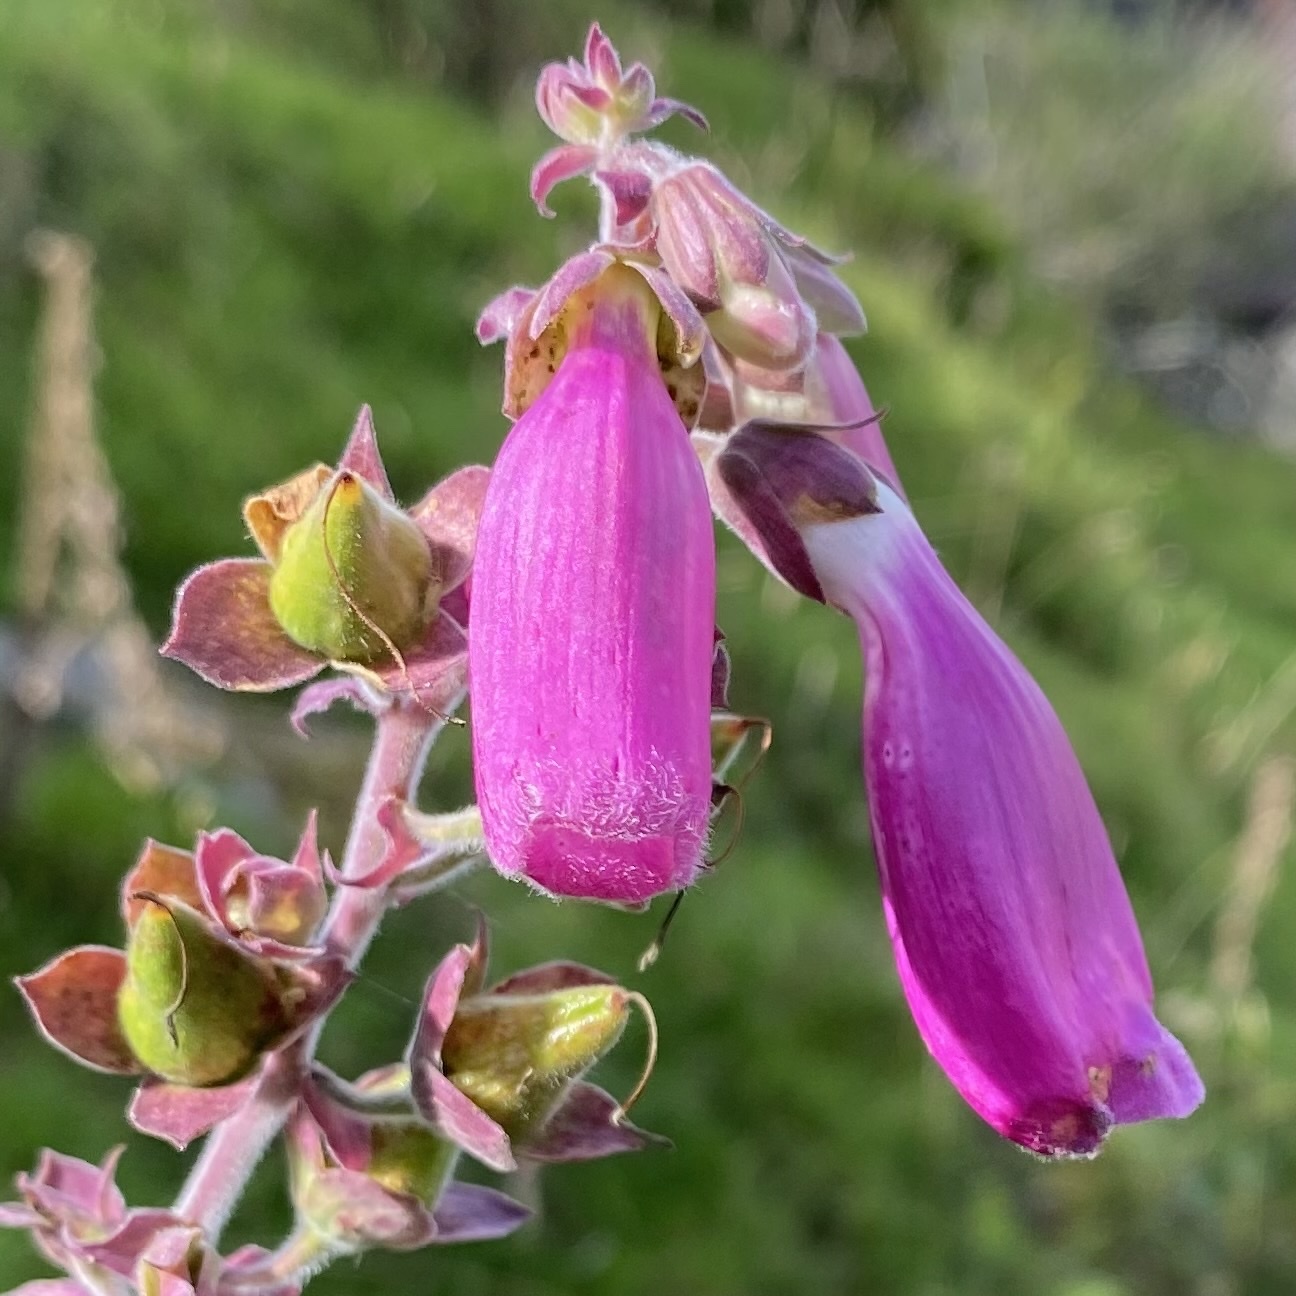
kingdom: Plantae
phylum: Tracheophyta
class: Magnoliopsida
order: Lamiales
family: Plantaginaceae
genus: Digitalis
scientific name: Digitalis purpurea
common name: Foxglove
